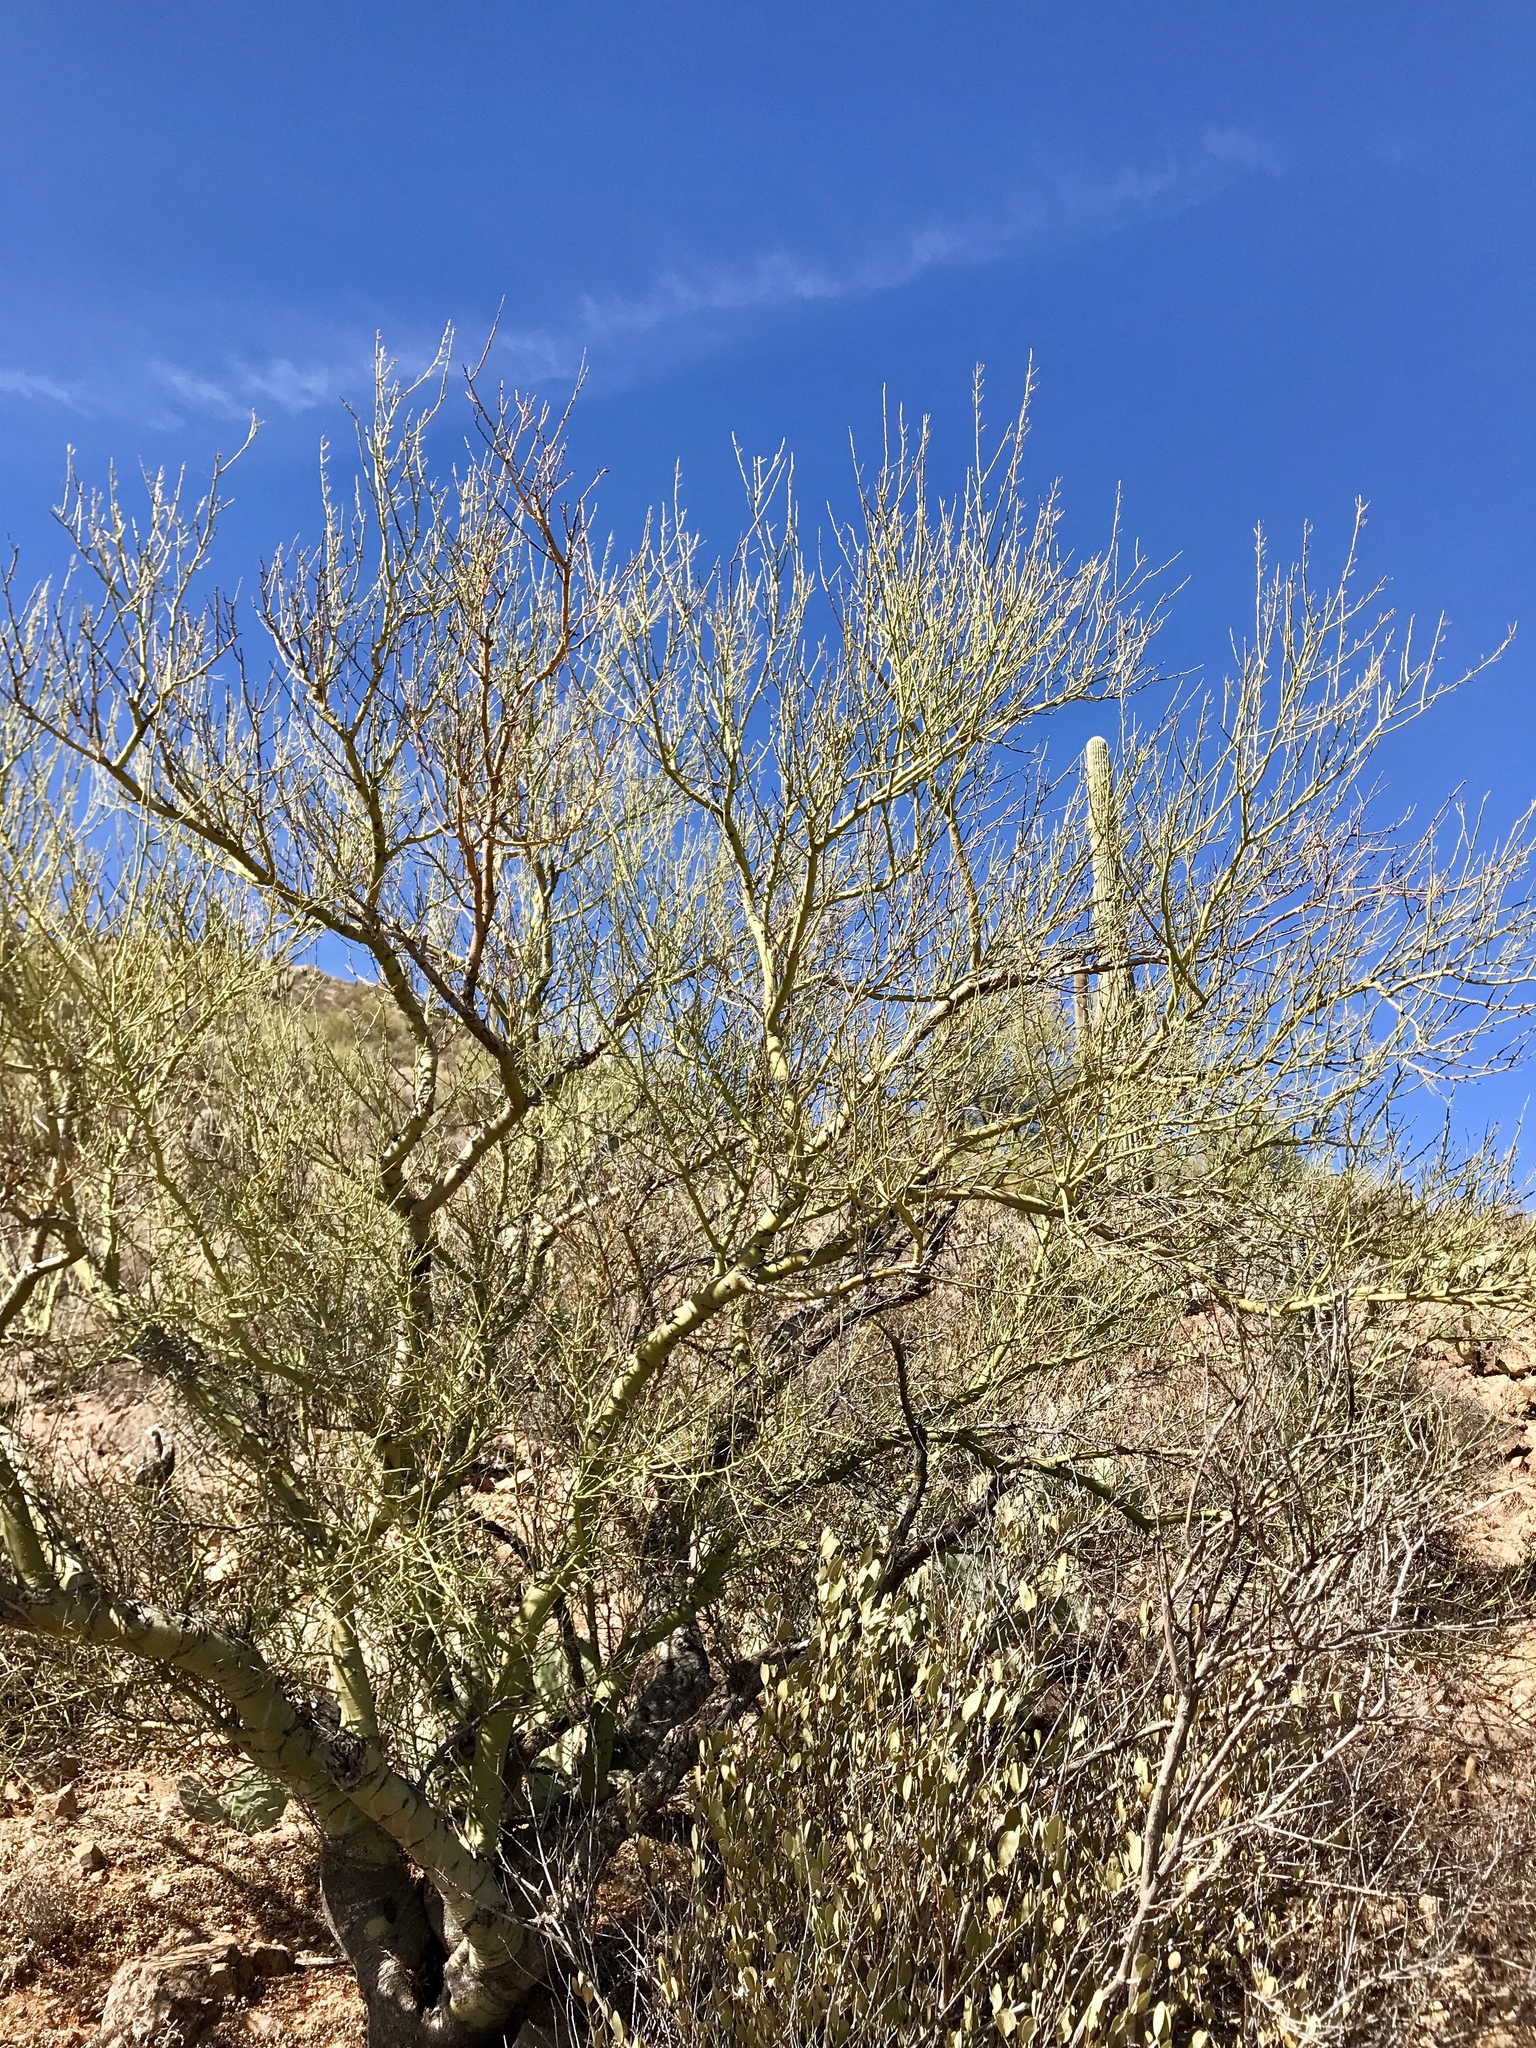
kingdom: Plantae
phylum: Tracheophyta
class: Magnoliopsida
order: Fabales
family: Fabaceae
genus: Parkinsonia
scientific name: Parkinsonia microphylla
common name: Yellow paloverde
